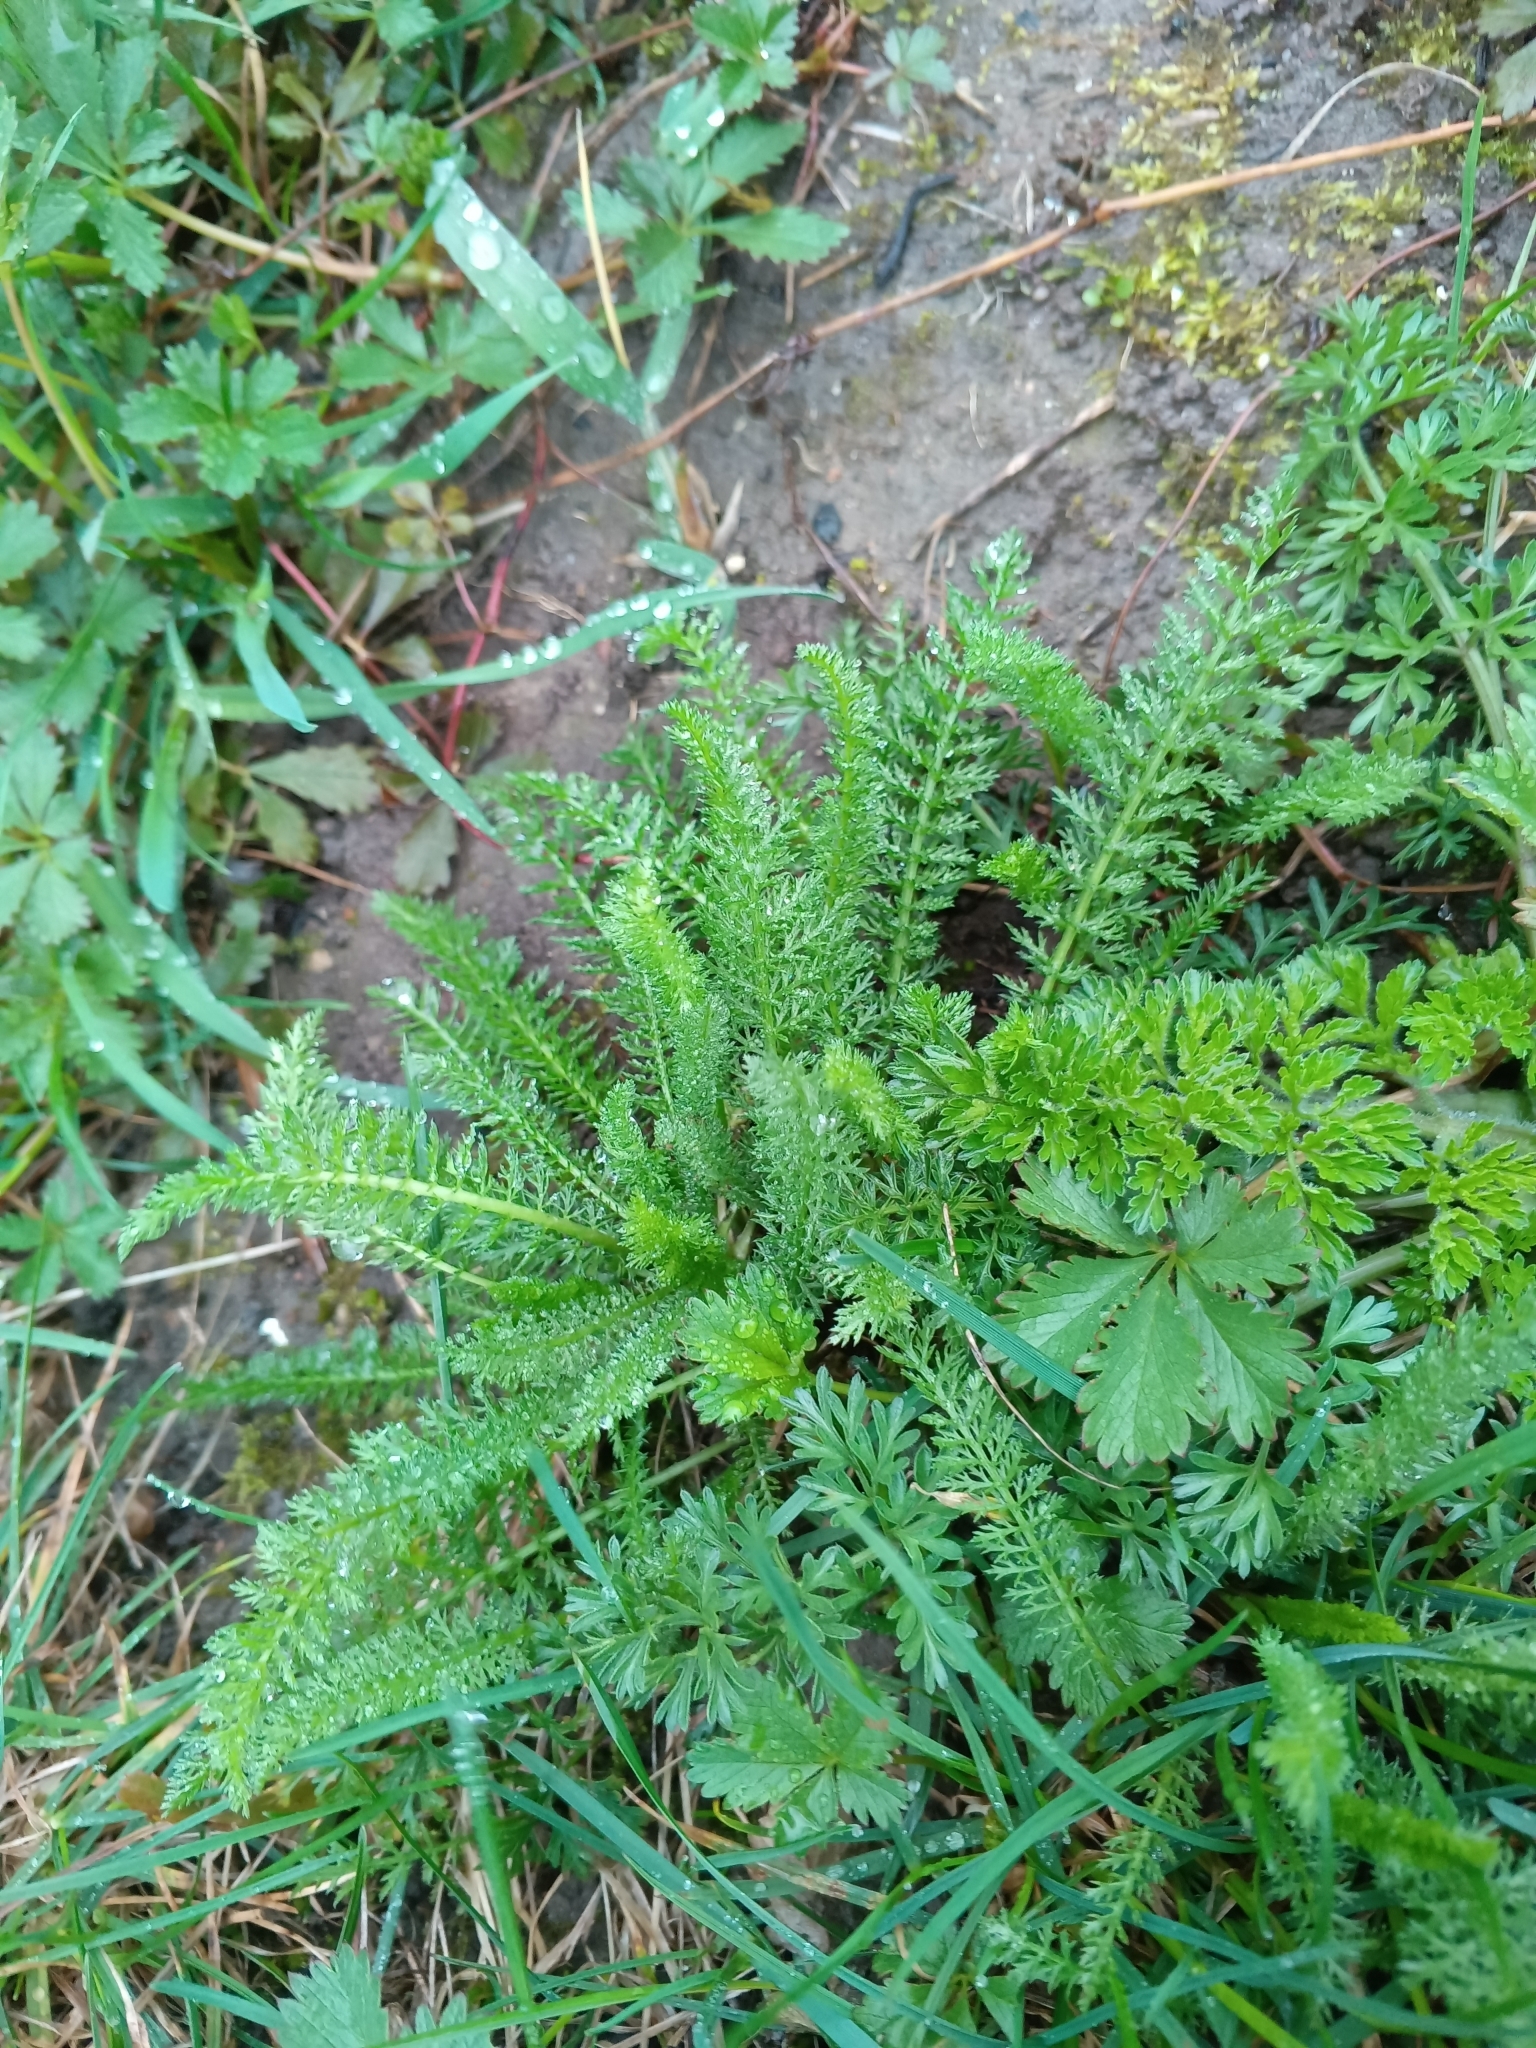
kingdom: Plantae
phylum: Tracheophyta
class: Magnoliopsida
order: Asterales
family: Asteraceae
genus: Achillea
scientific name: Achillea millefolium
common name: Yarrow
